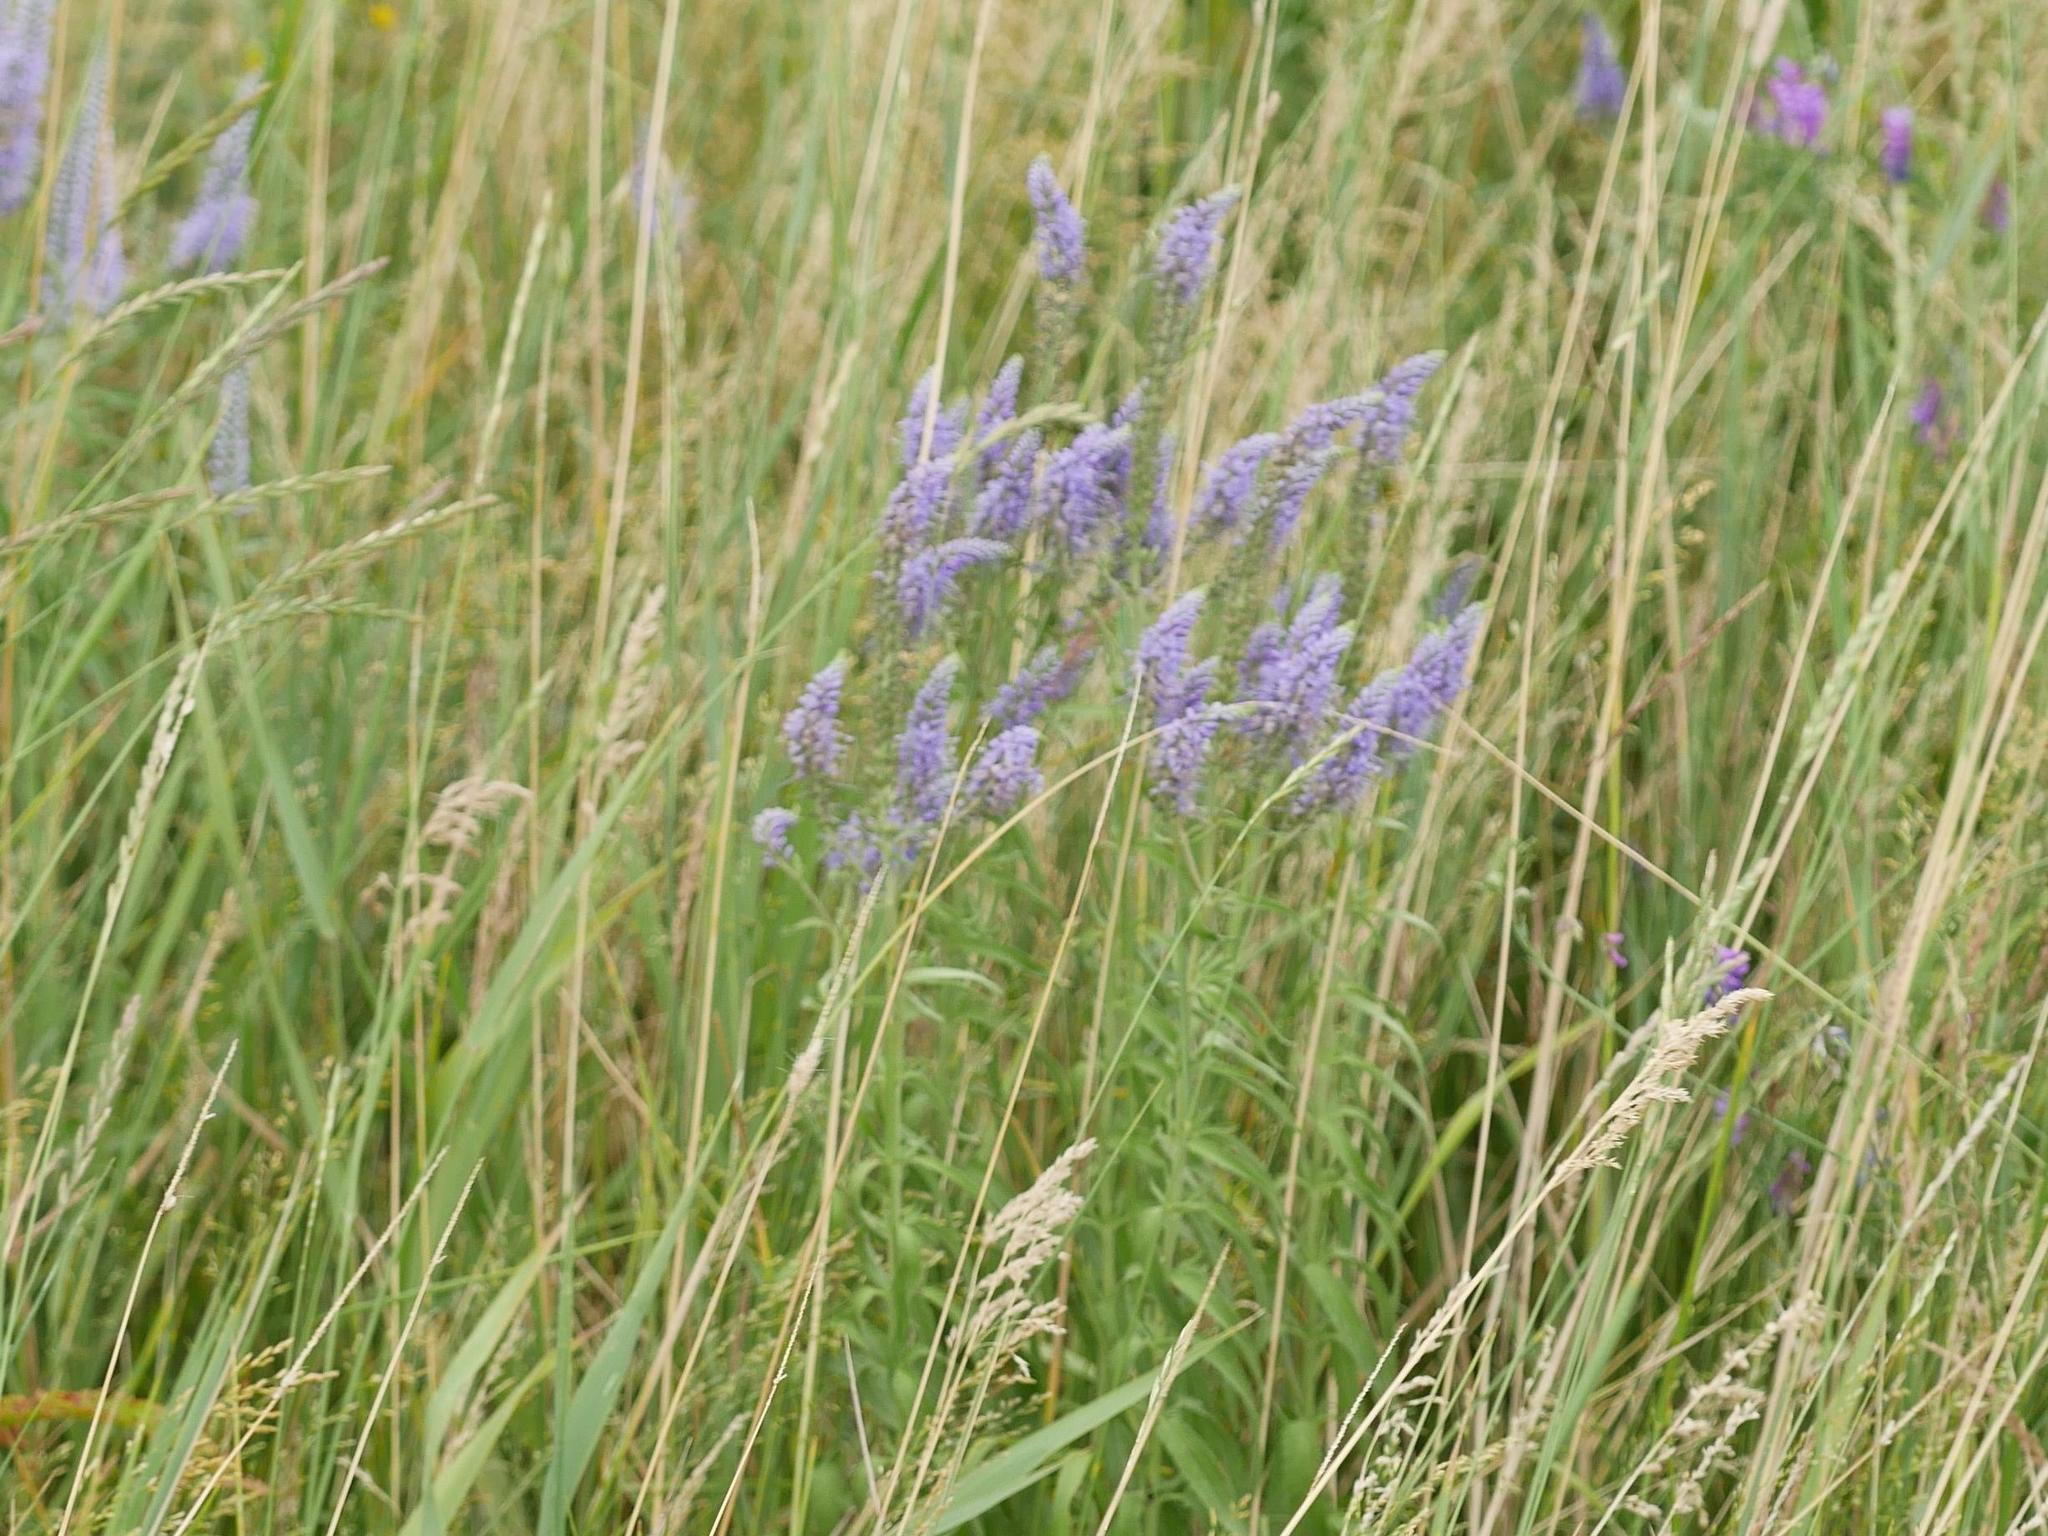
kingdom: Plantae
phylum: Tracheophyta
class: Magnoliopsida
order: Lamiales
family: Plantaginaceae
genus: Veronica
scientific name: Veronica longifolia
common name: Garden speedwell
